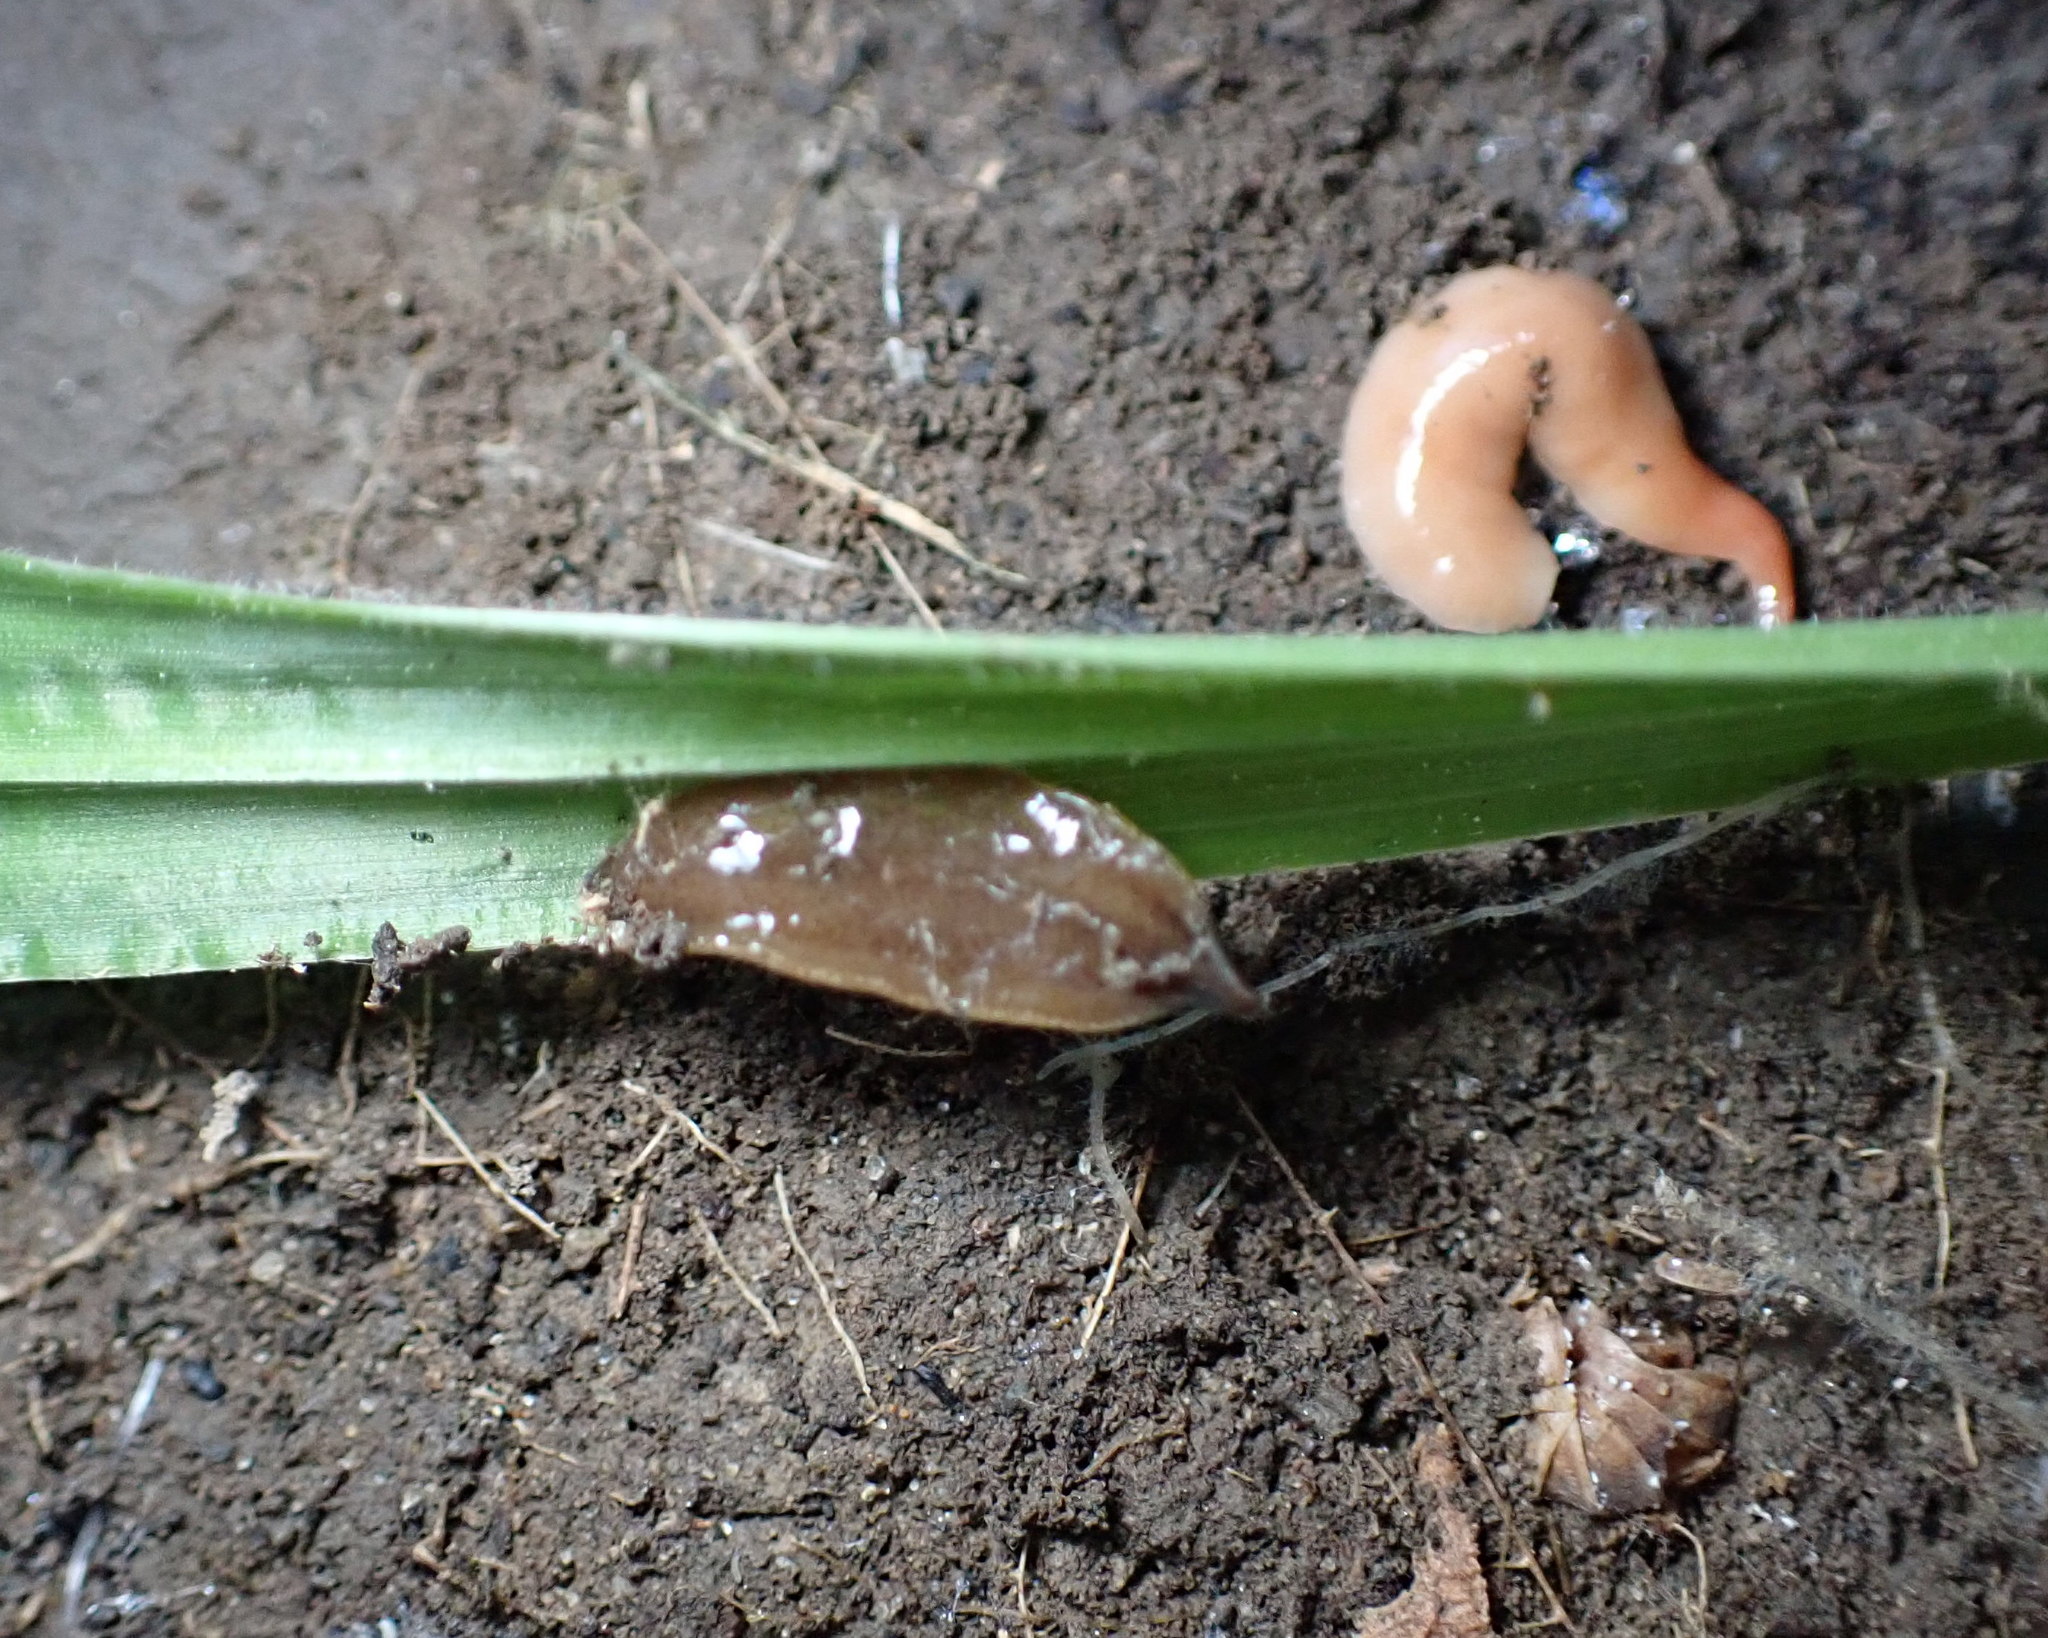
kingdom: Animalia
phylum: Platyhelminthes
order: Tricladida
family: Geoplanidae
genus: Newzealandia
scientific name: Newzealandia graffii
